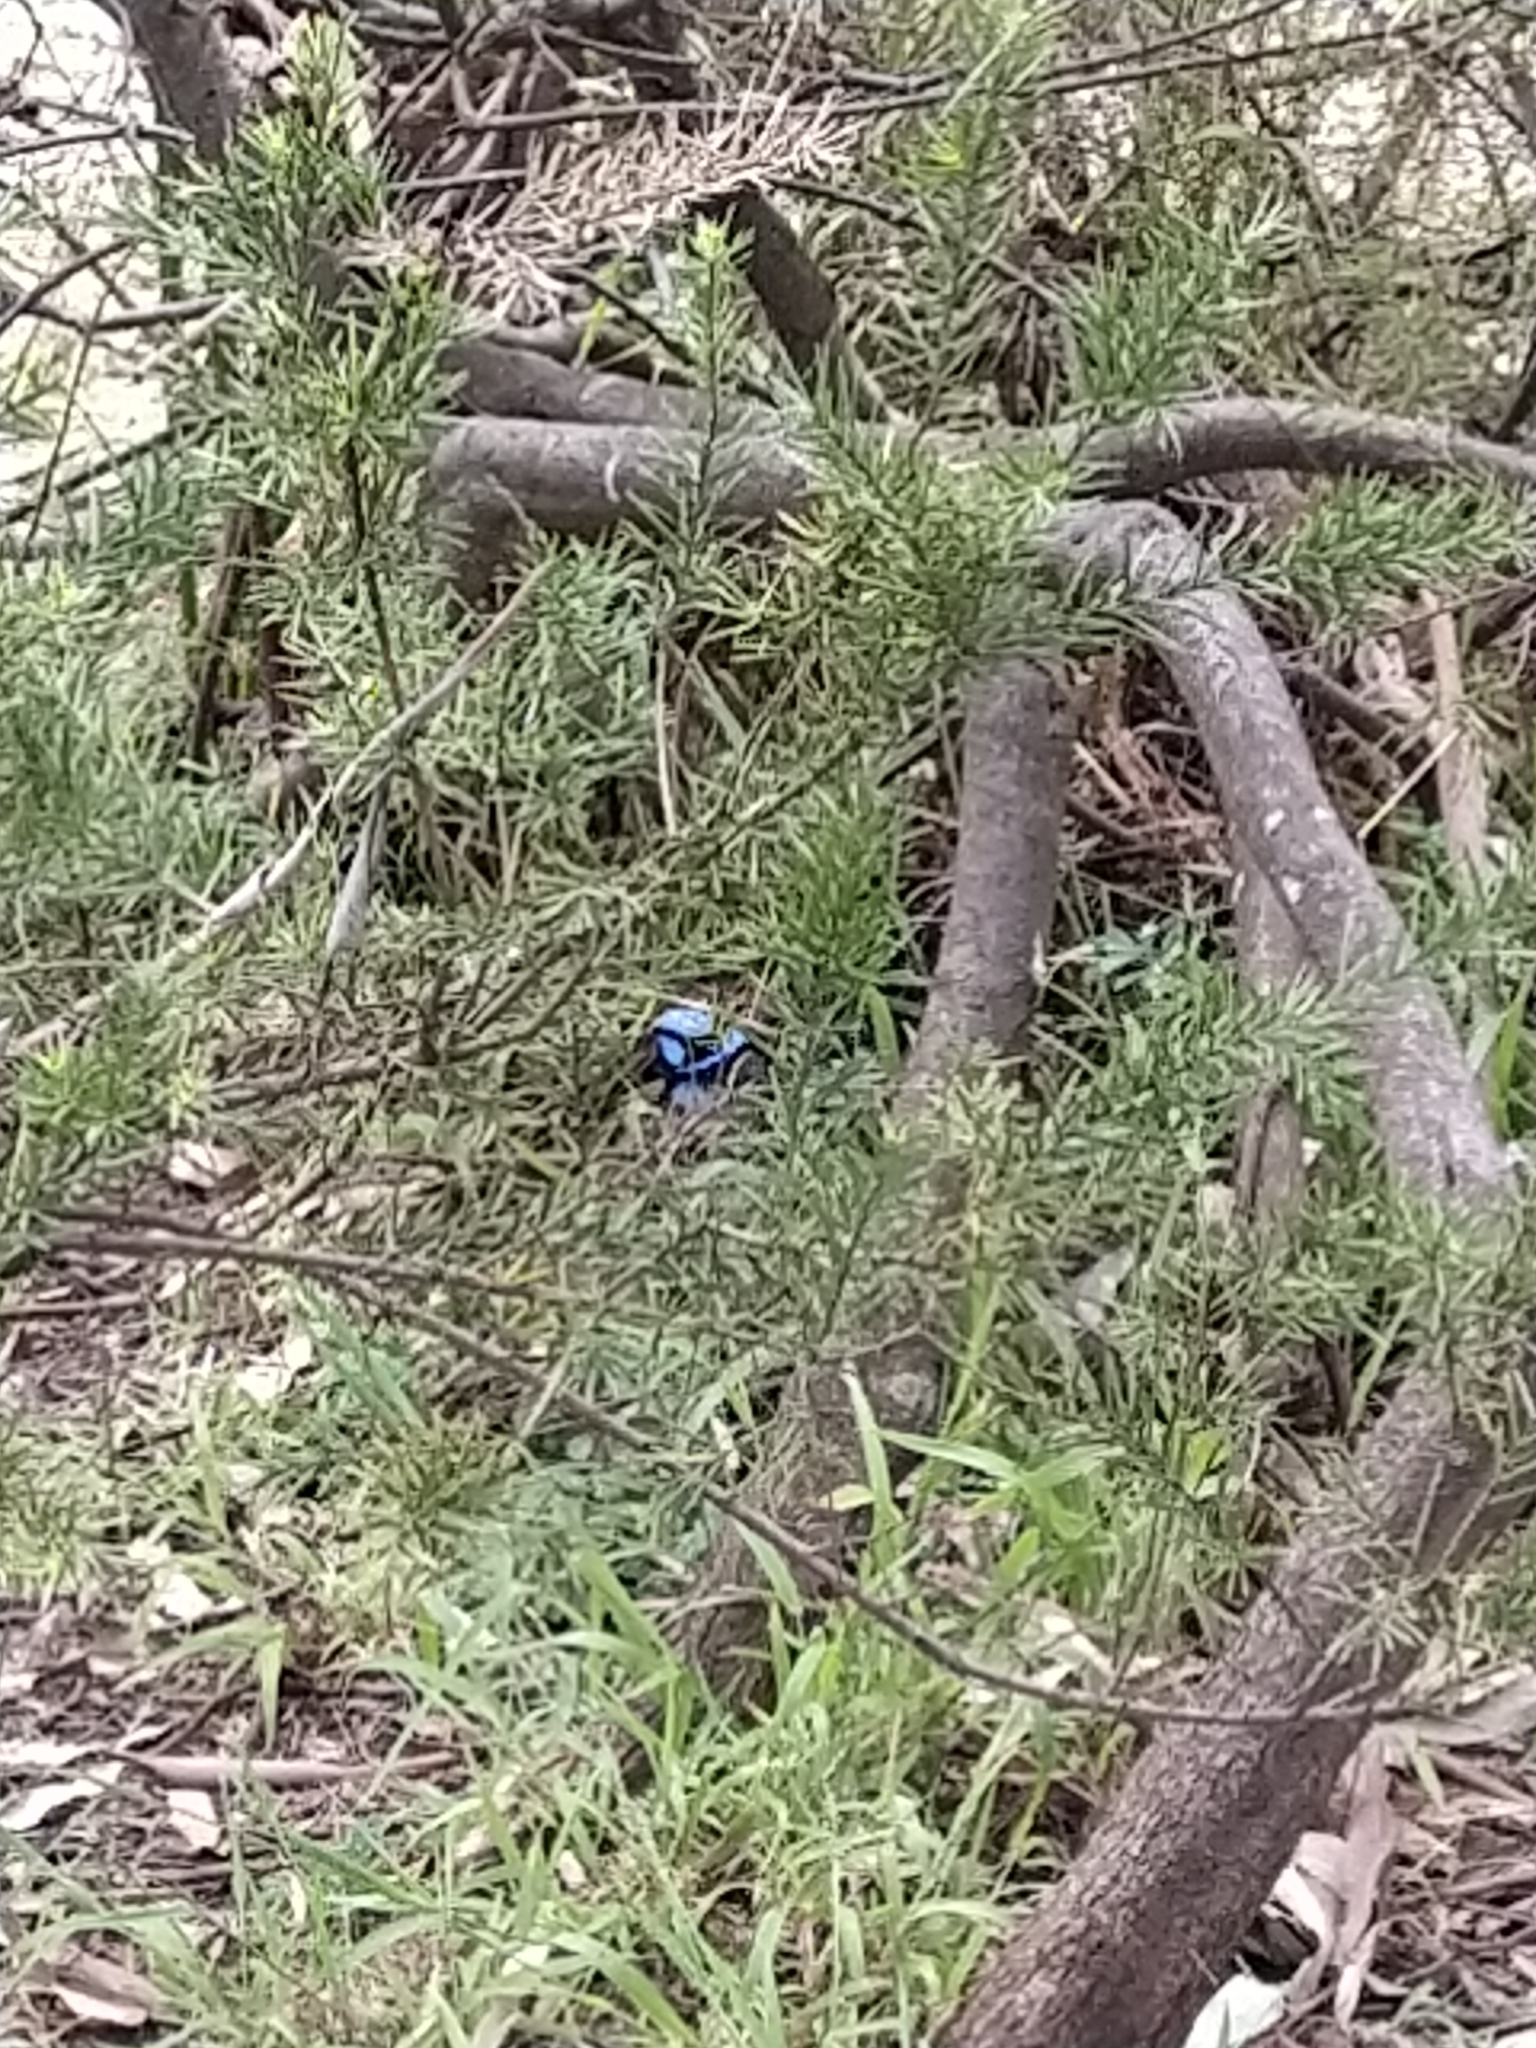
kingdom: Animalia
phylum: Chordata
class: Aves
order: Passeriformes
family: Maluridae
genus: Malurus
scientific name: Malurus cyaneus
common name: Superb fairywren
